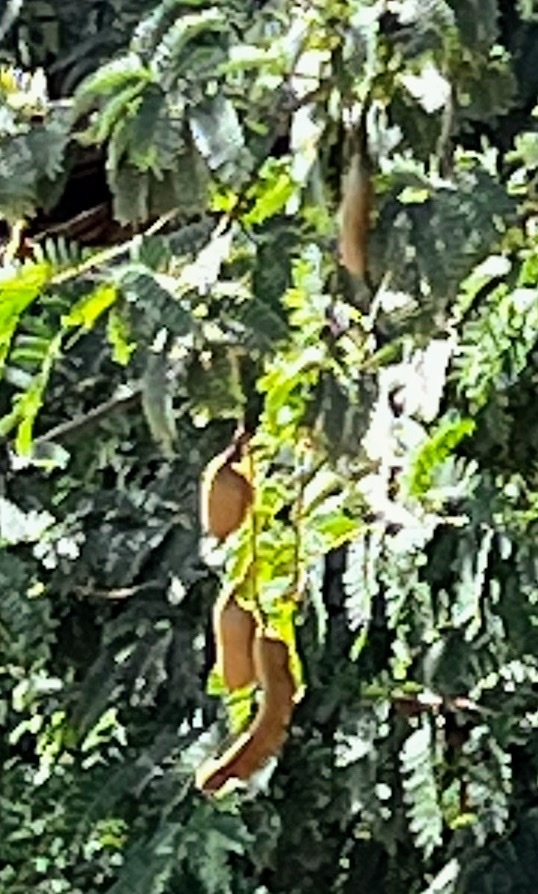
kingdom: Plantae
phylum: Tracheophyta
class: Magnoliopsida
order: Fabales
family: Fabaceae
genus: Tamarindus
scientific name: Tamarindus indica
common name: Tamarind
